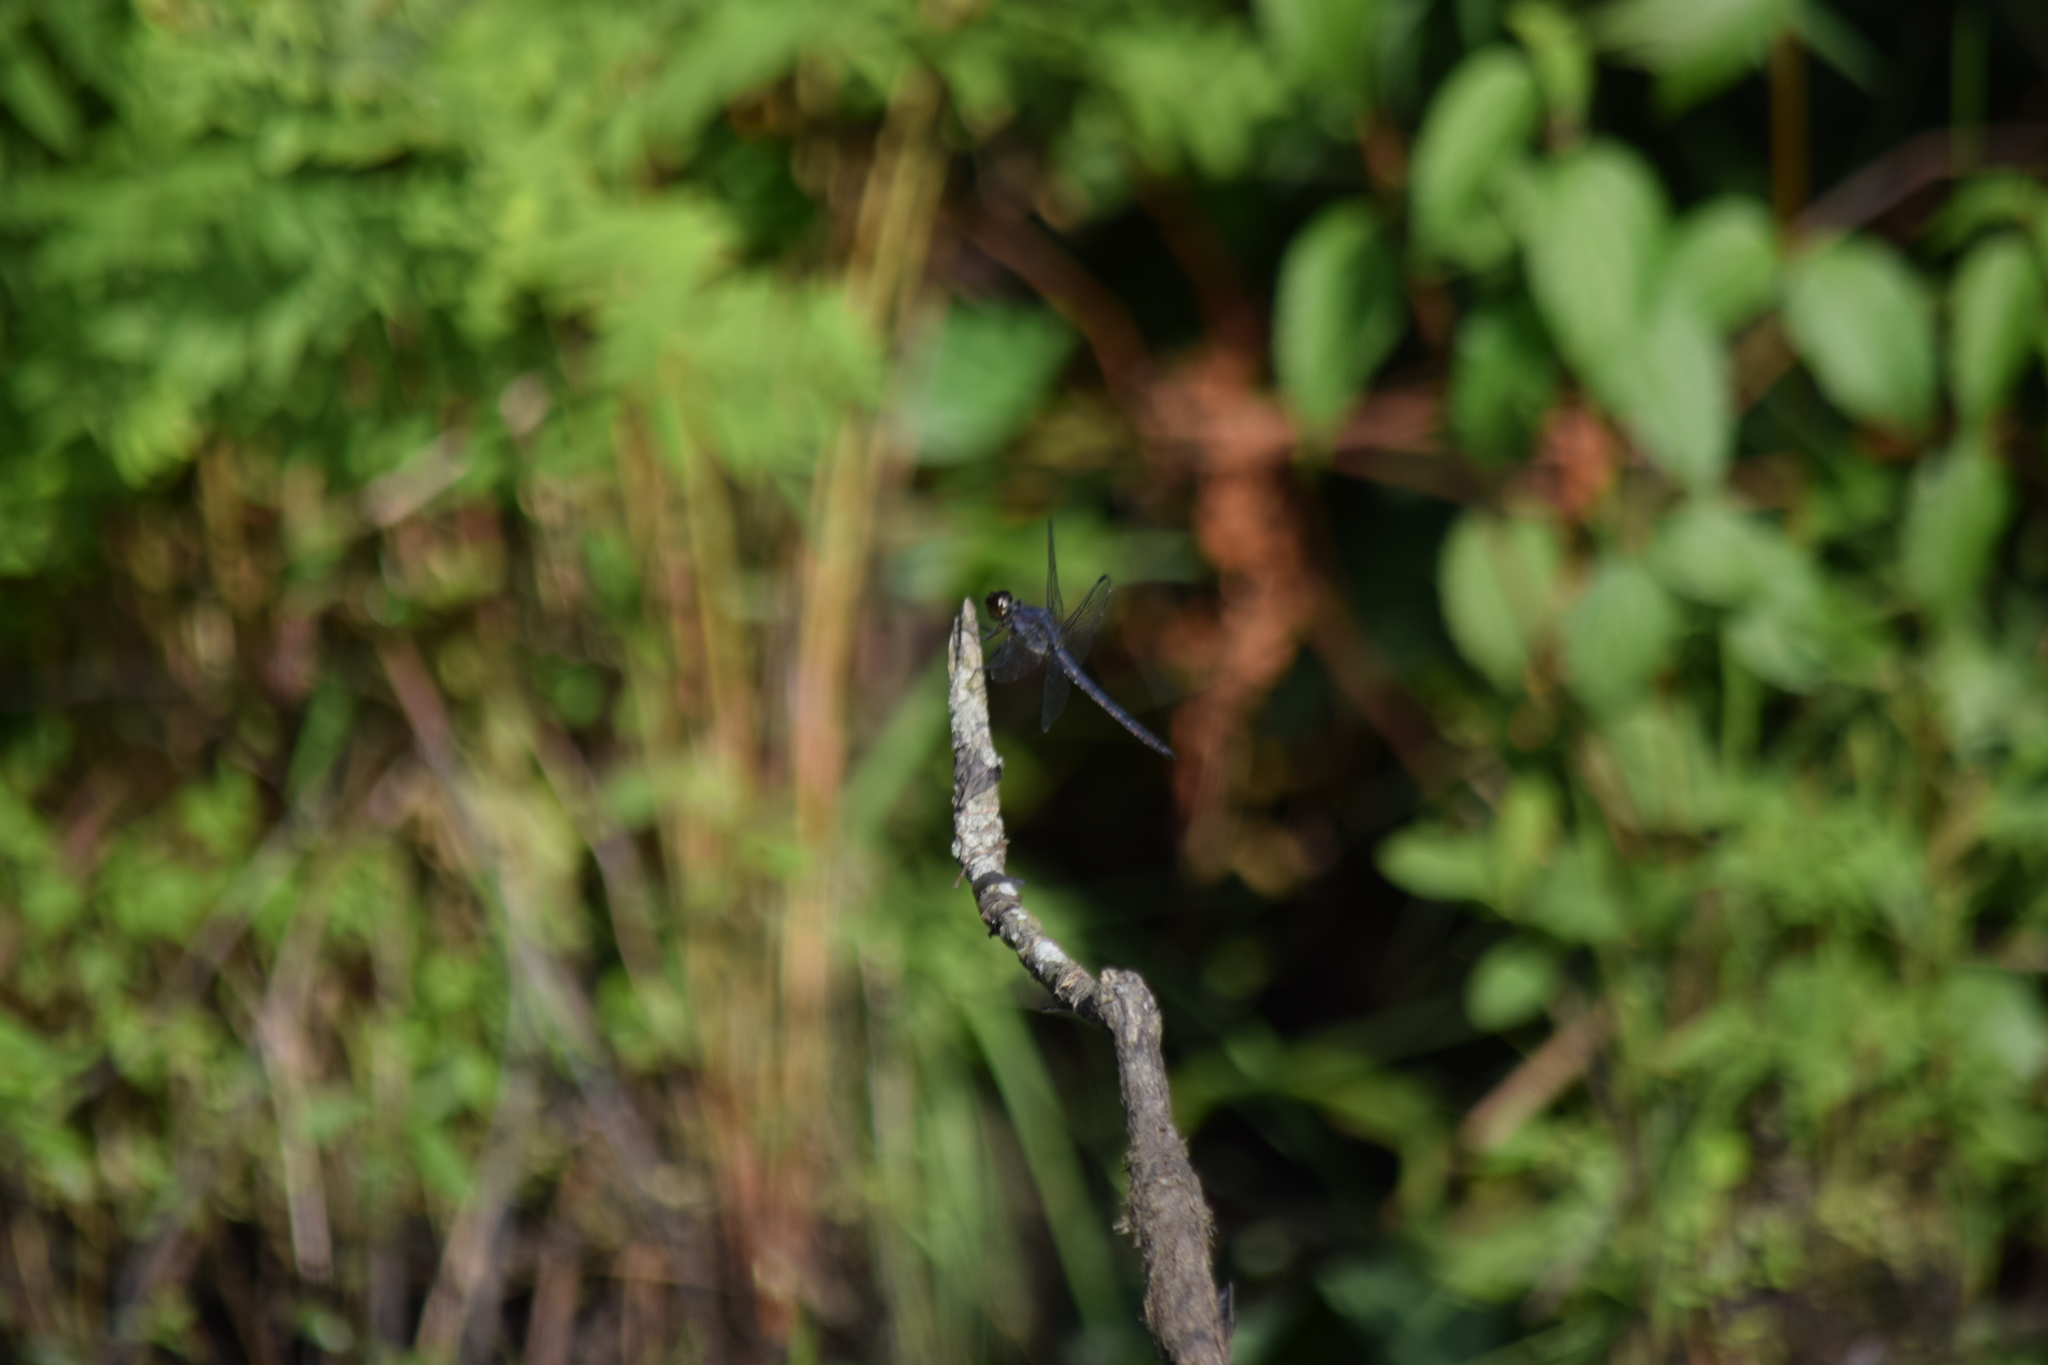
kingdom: Animalia
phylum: Arthropoda
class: Insecta
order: Odonata
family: Libellulidae
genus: Libellula
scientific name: Libellula incesta
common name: Slaty skimmer
